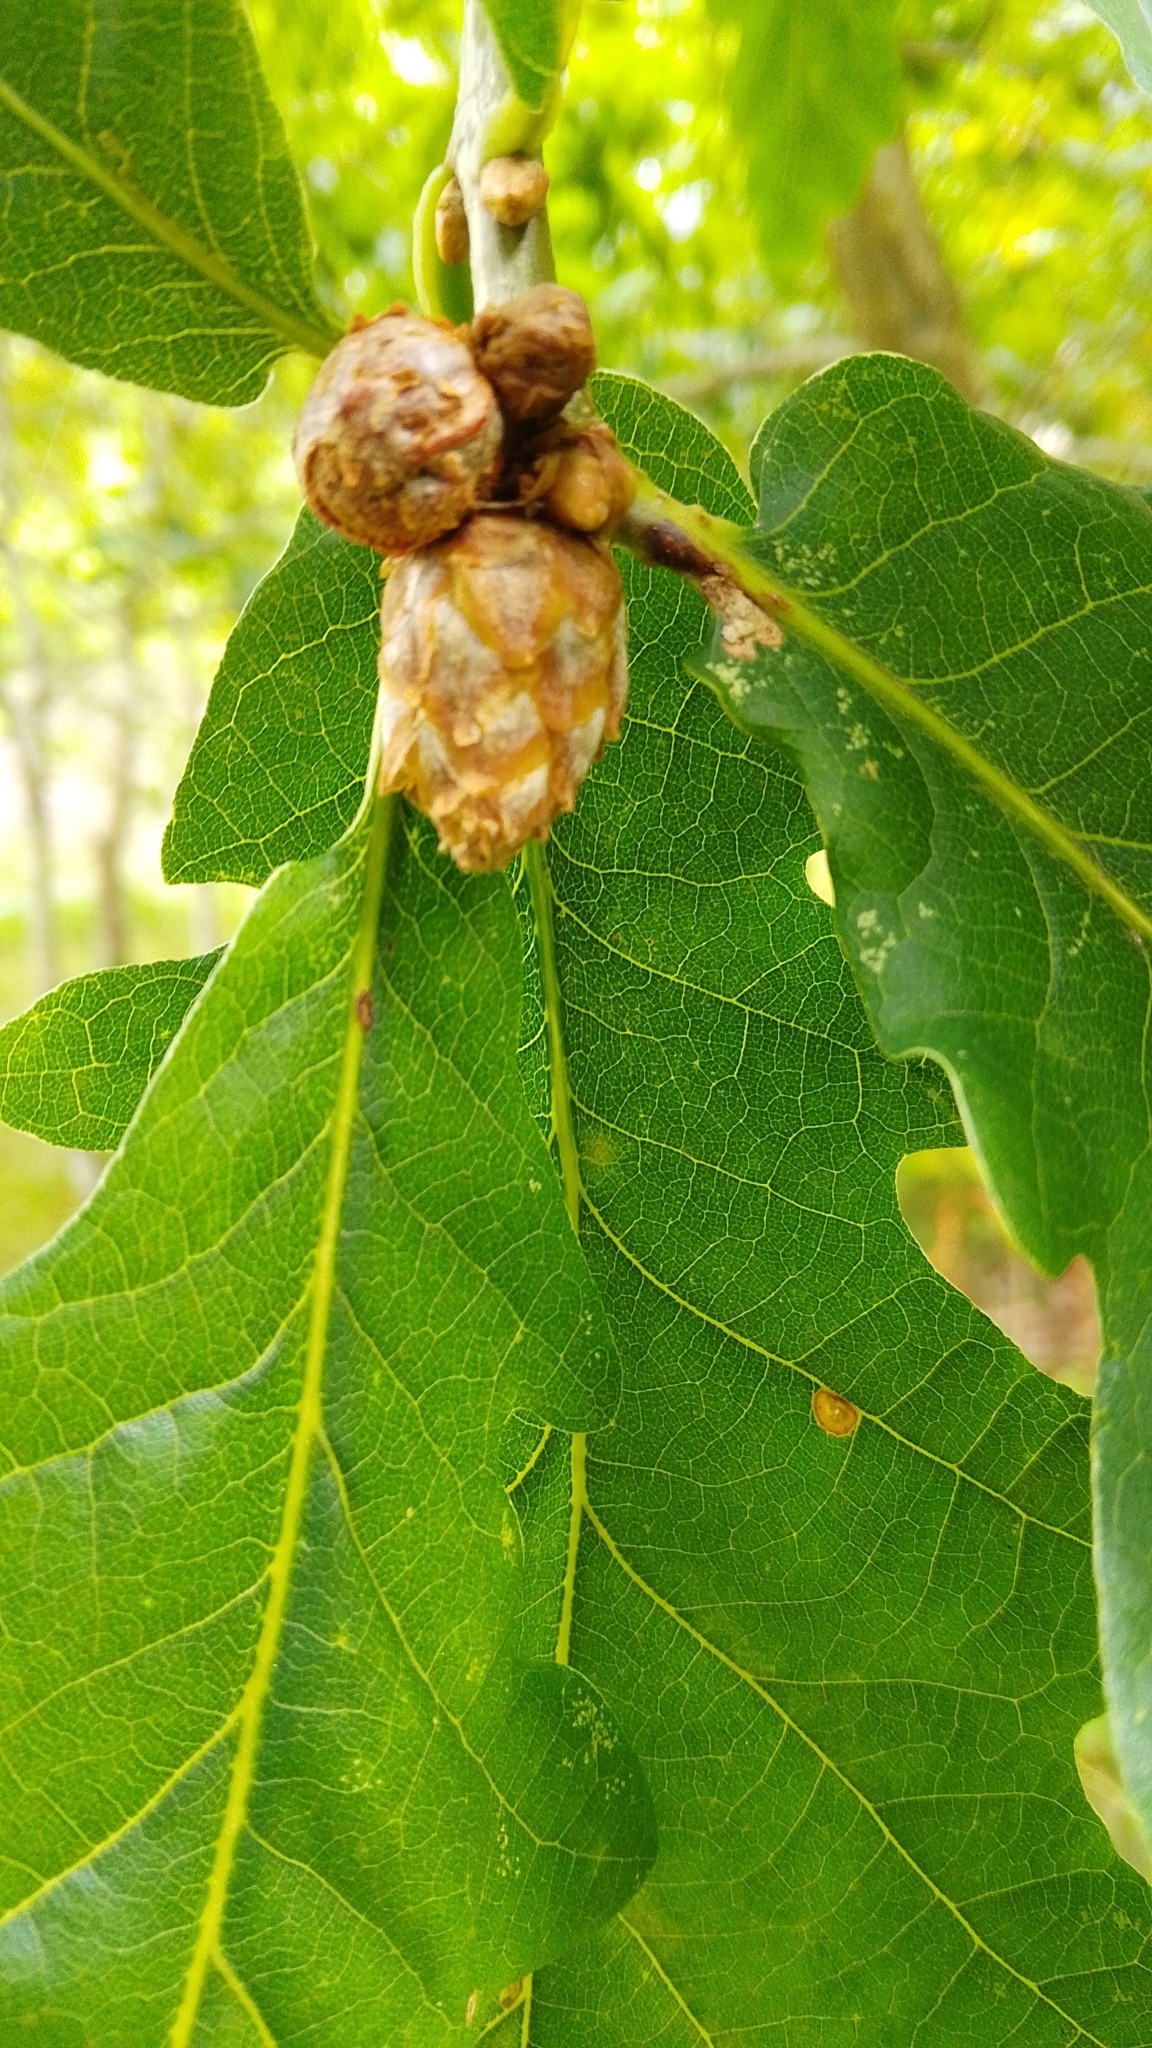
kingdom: Animalia
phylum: Arthropoda
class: Insecta
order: Hymenoptera
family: Cynipidae
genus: Andricus
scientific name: Andricus foecundatrix
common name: Artichoke gall
